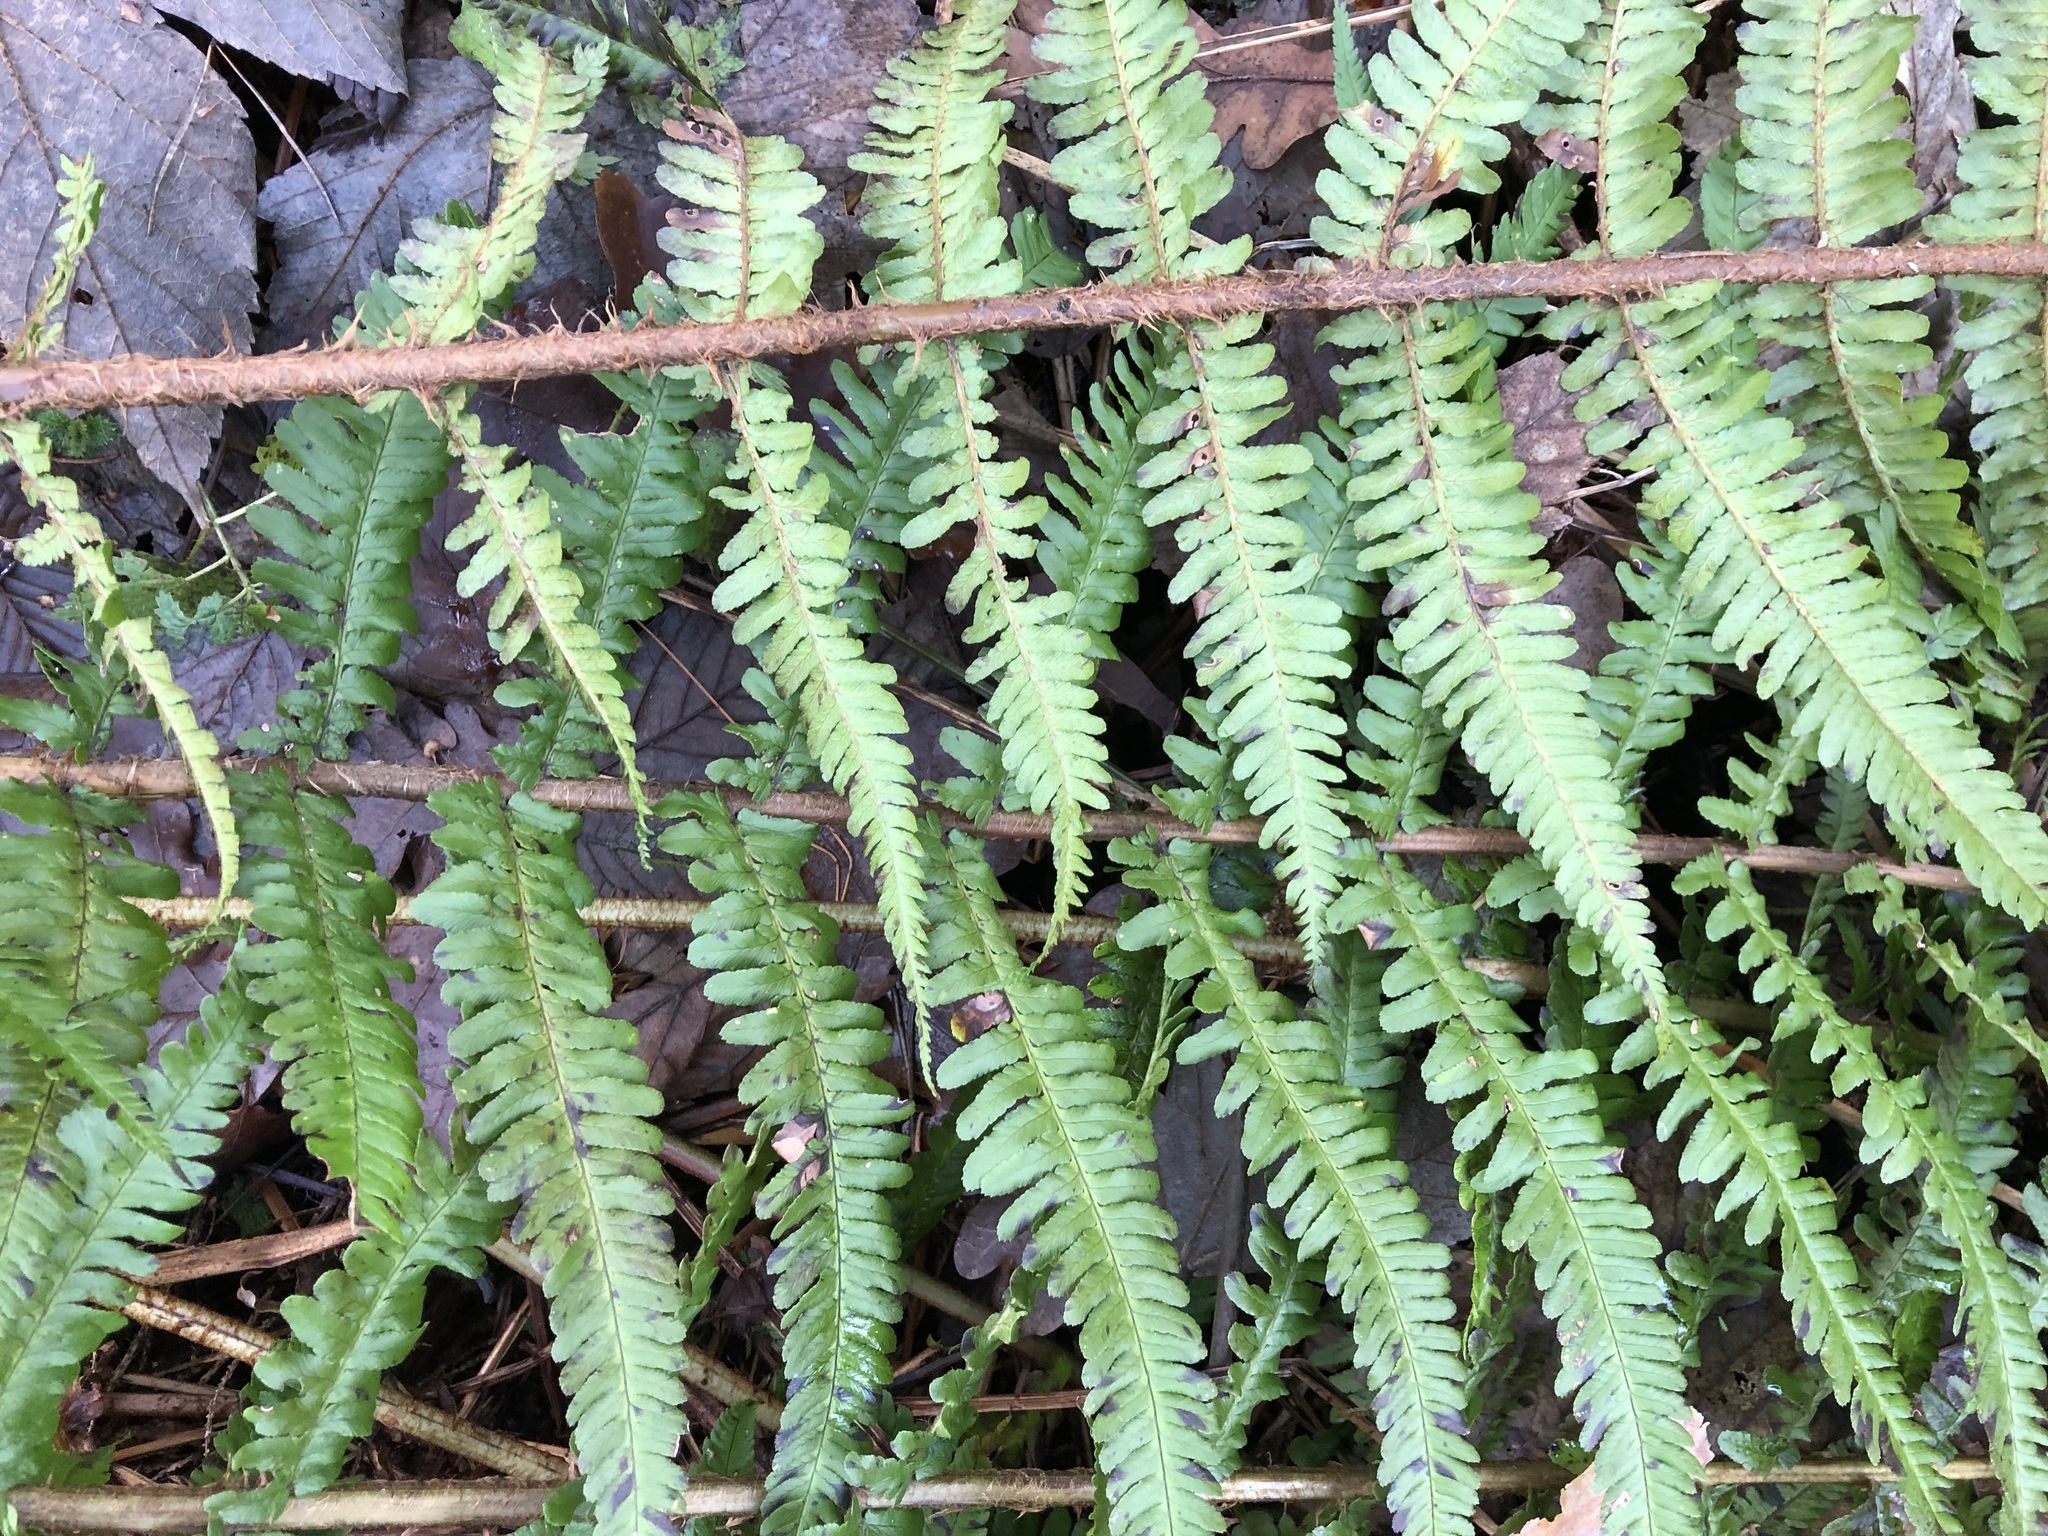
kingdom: Plantae
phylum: Tracheophyta
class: Polypodiopsida
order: Polypodiales
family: Dryopteridaceae
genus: Dryopteris
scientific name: Dryopteris borreri
